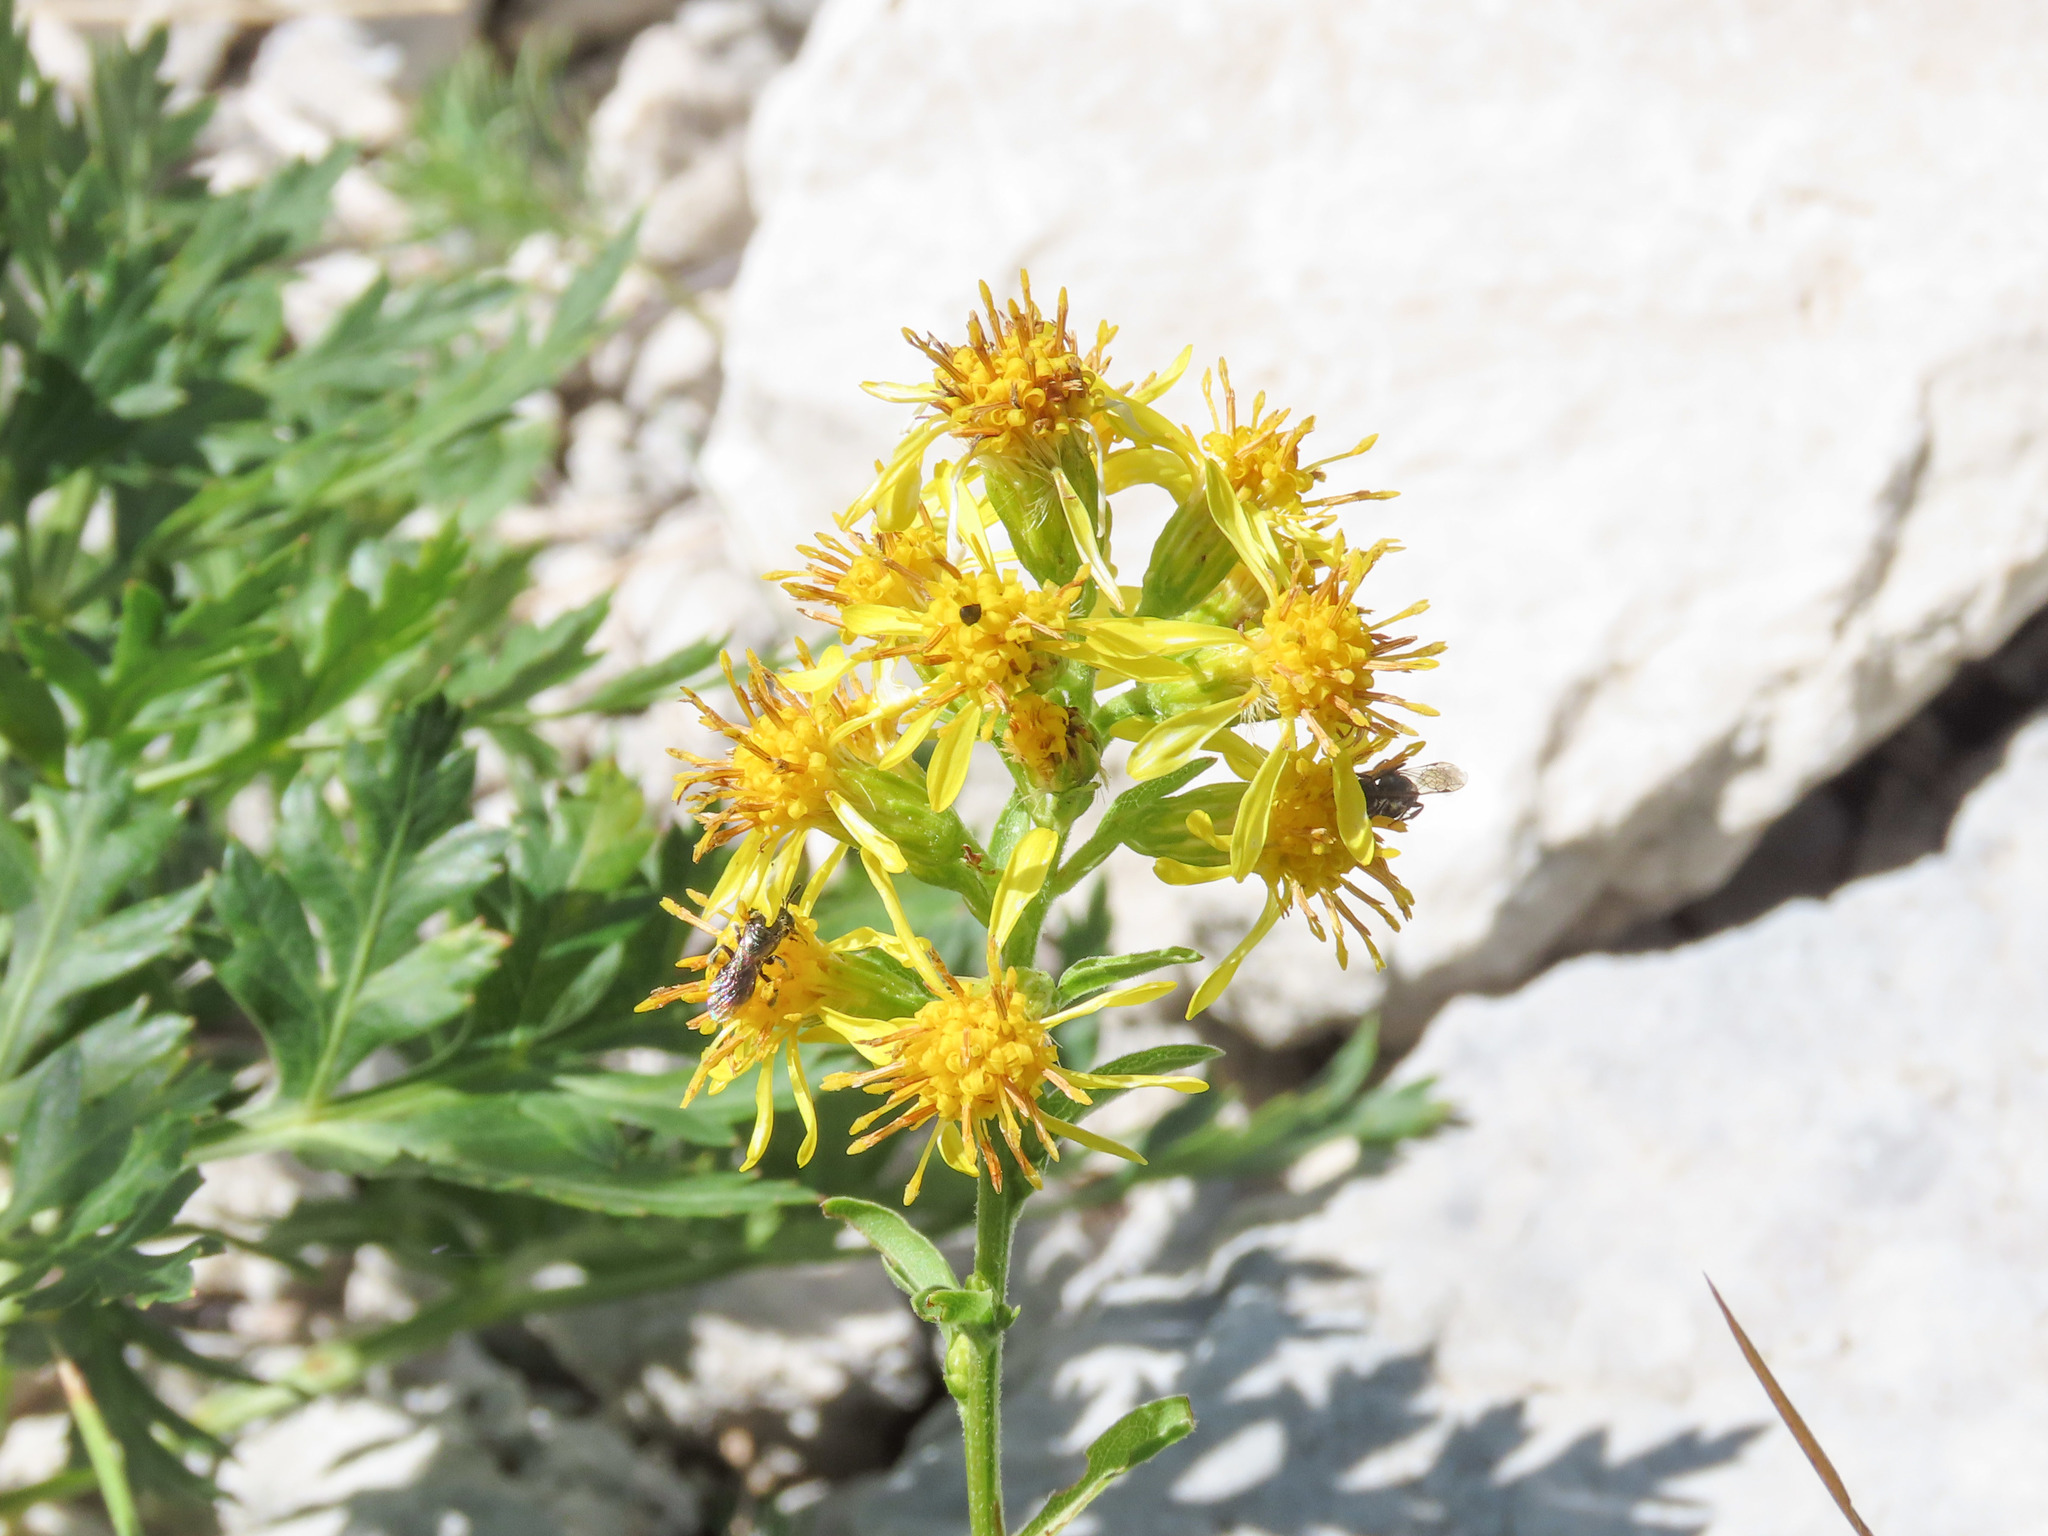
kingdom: Plantae
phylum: Tracheophyta
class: Magnoliopsida
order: Asterales
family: Asteraceae
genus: Solidago
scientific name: Solidago virgaurea
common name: Goldenrod
